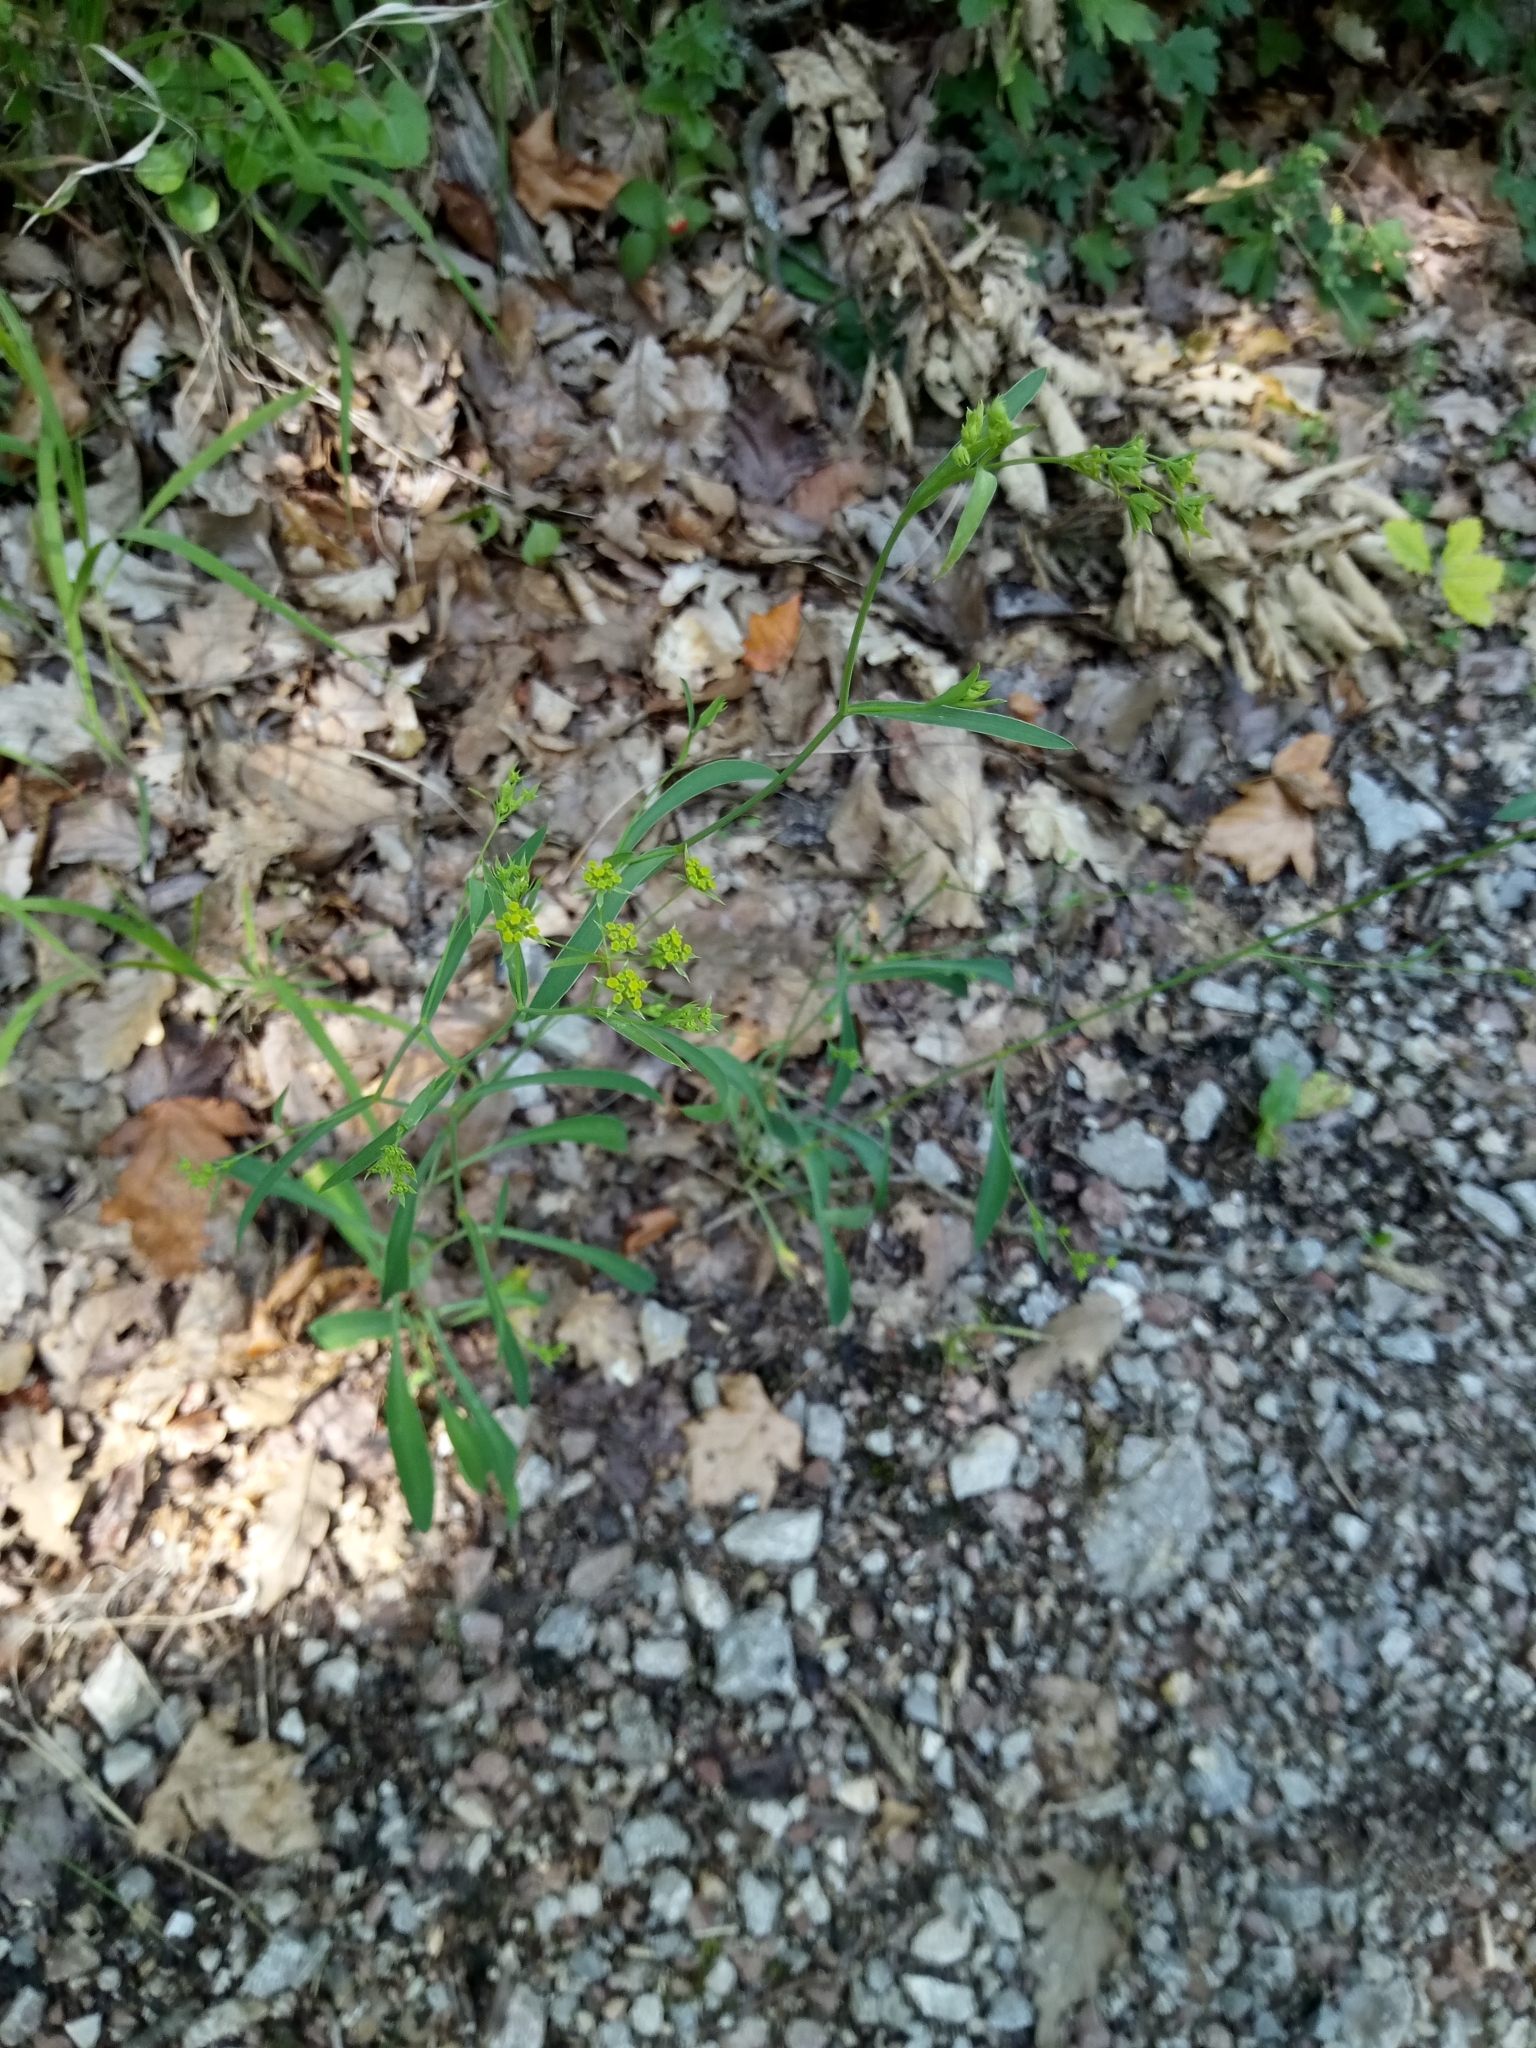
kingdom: Plantae
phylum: Tracheophyta
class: Magnoliopsida
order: Apiales
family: Apiaceae
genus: Bupleurum
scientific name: Bupleurum falcatum
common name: Sickle-leaved hare's-ear
